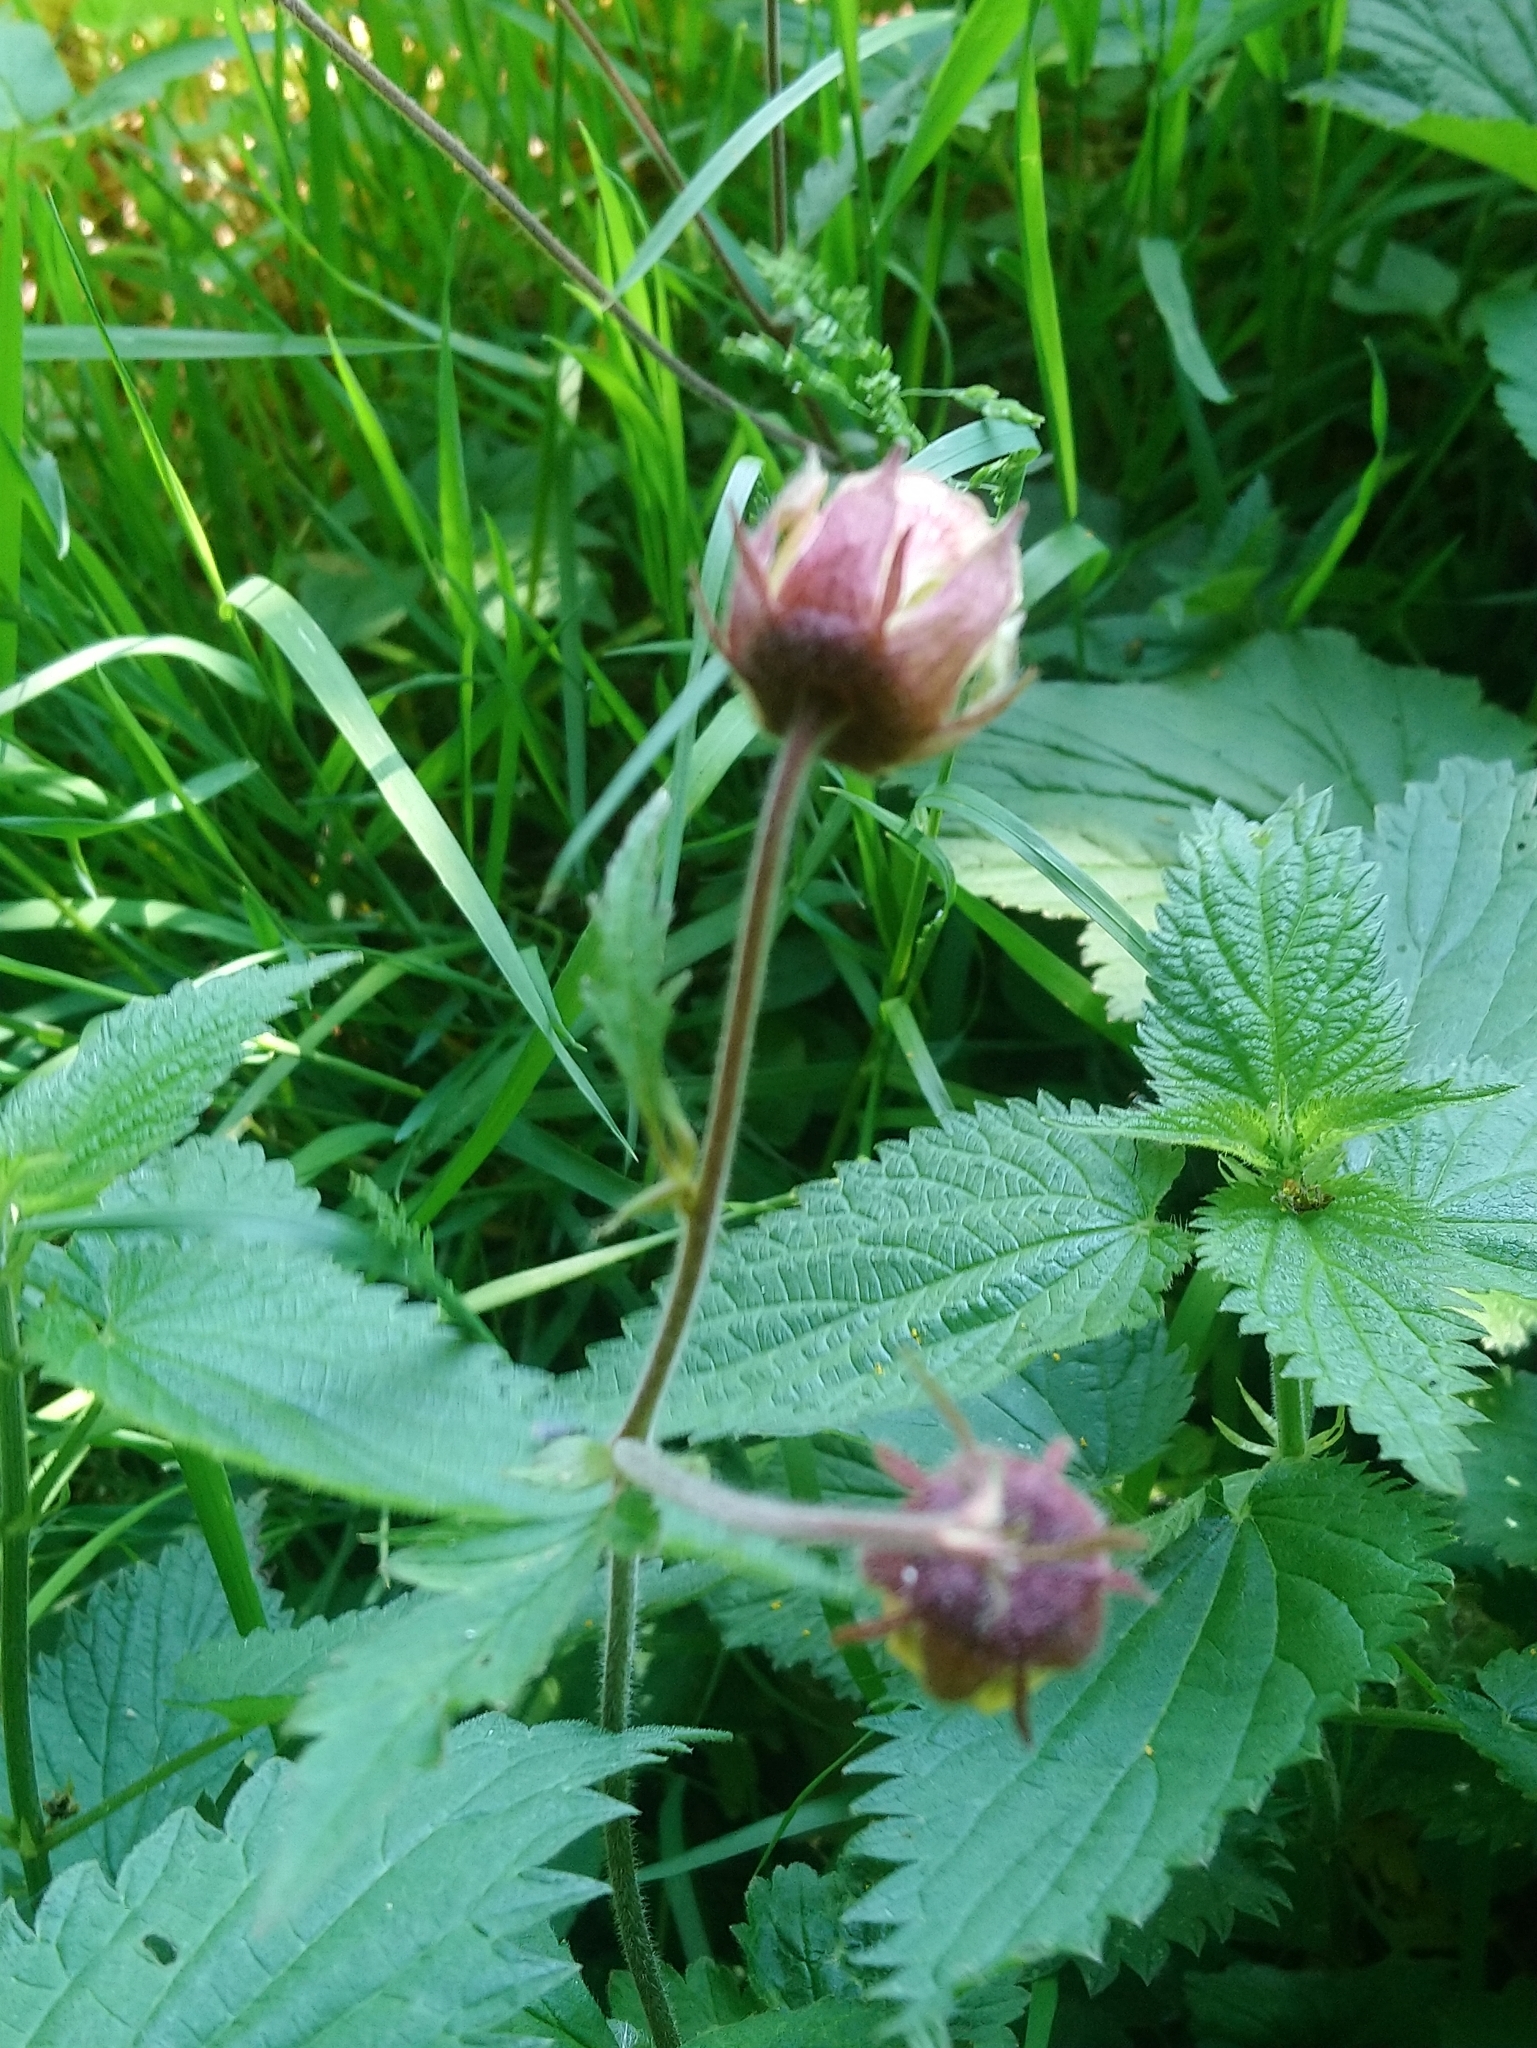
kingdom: Plantae
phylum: Tracheophyta
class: Magnoliopsida
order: Rosales
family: Rosaceae
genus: Geum
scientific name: Geum rivale
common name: Water avens
